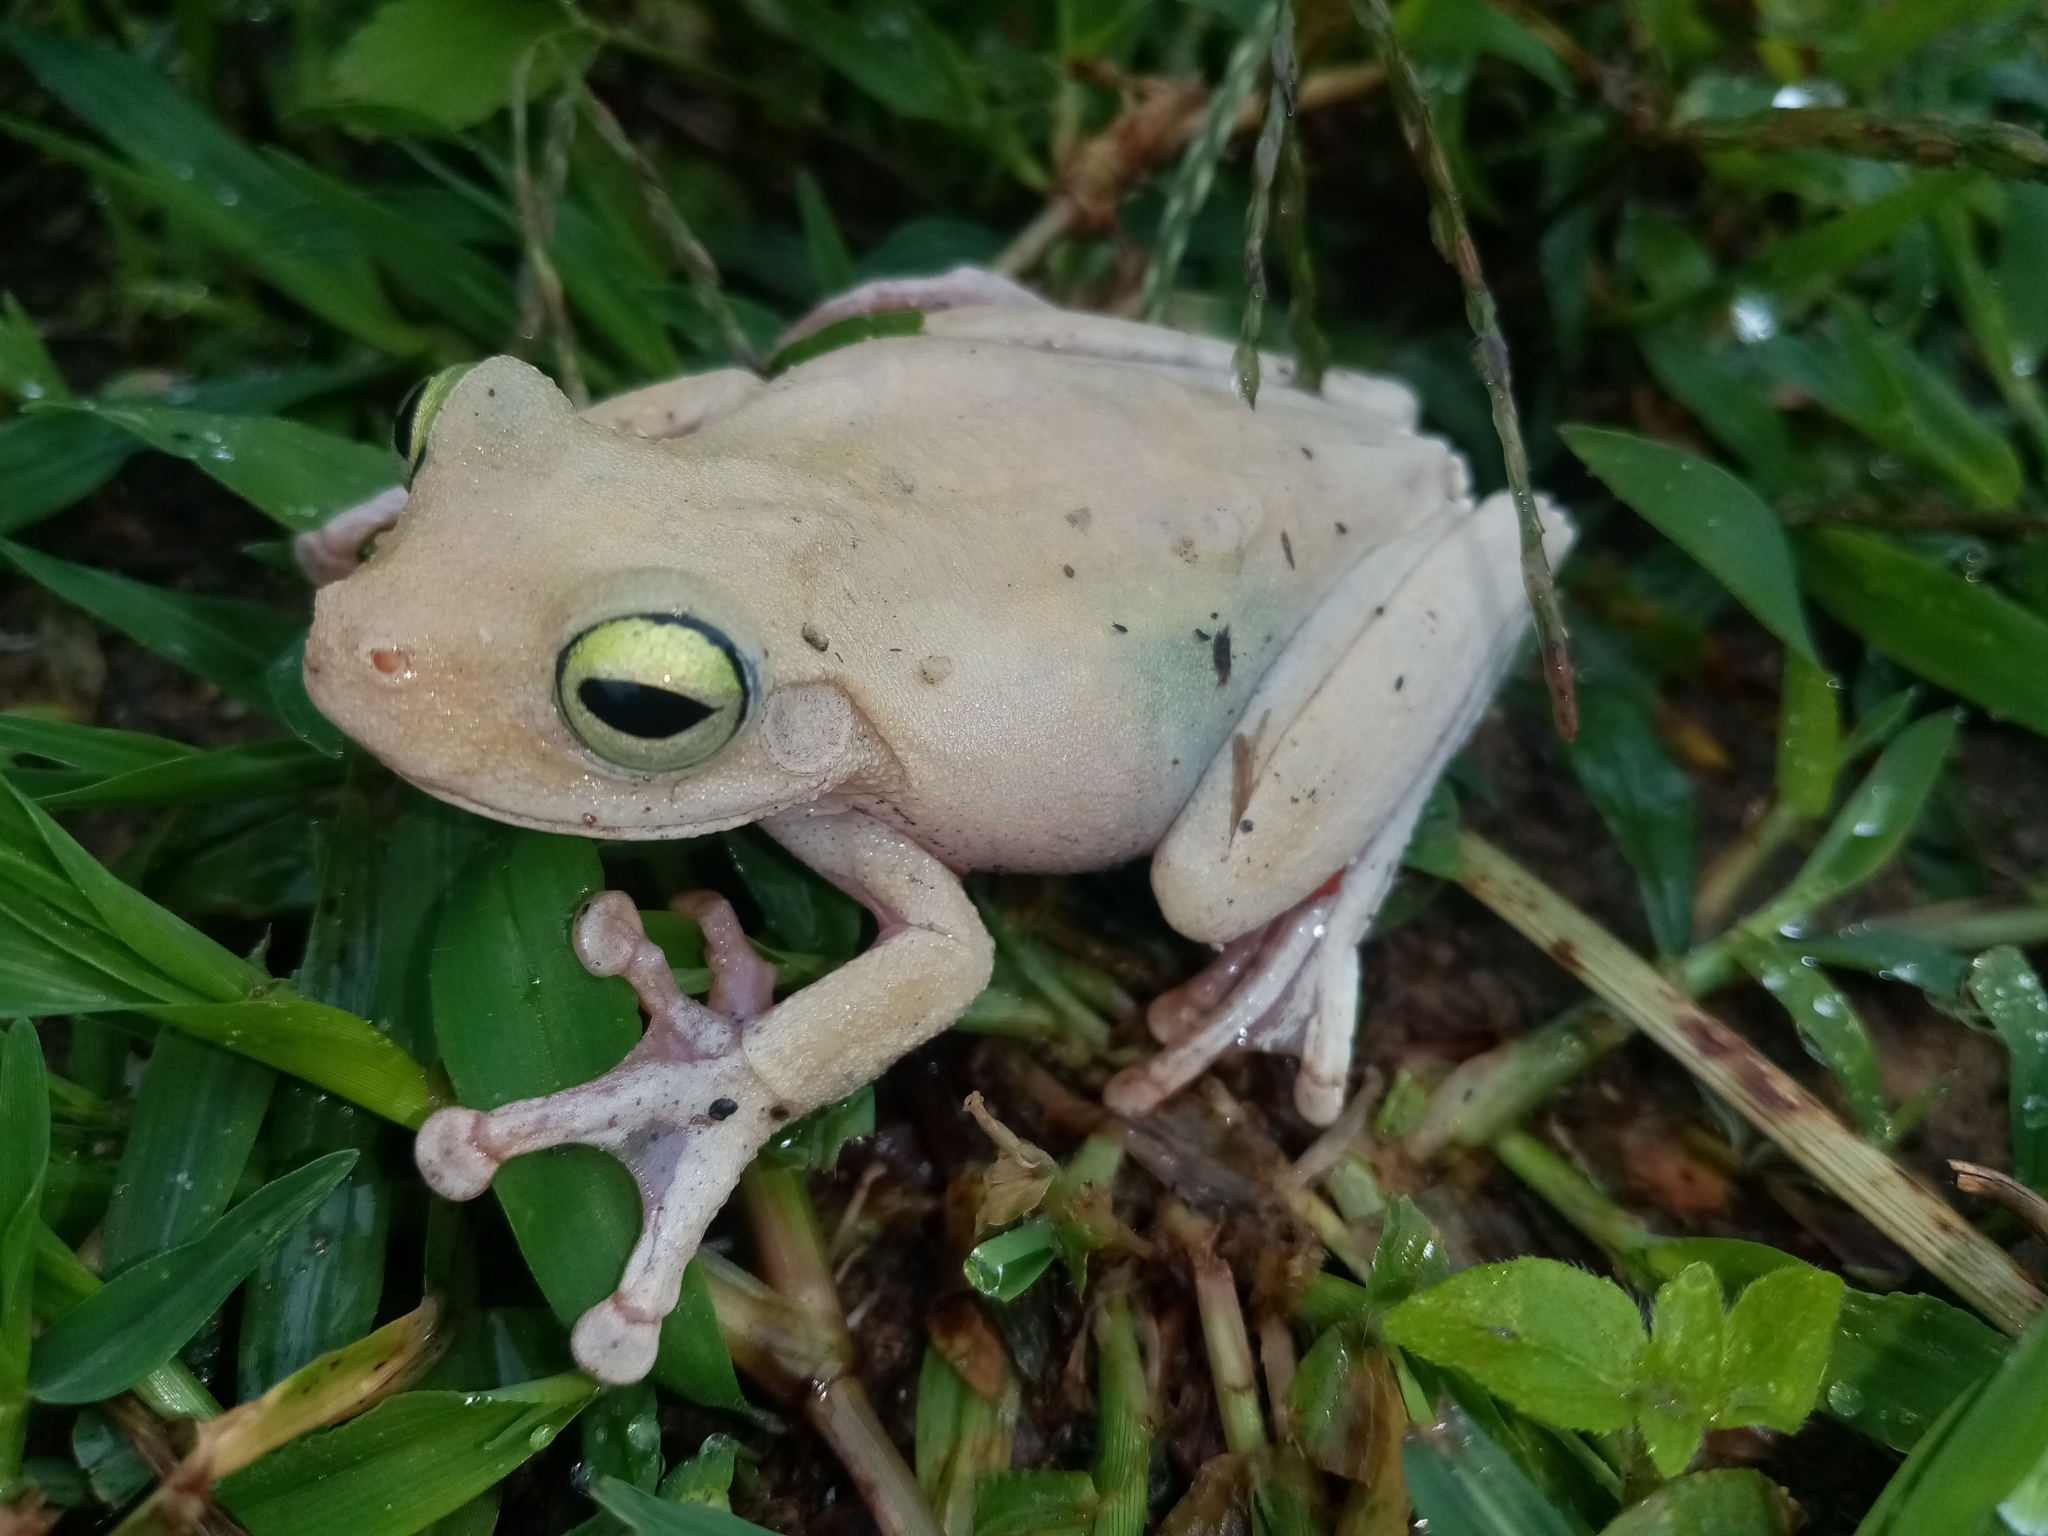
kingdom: Animalia
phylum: Chordata
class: Amphibia
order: Anura
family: Hylidae
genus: Boana
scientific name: Boana platanera
